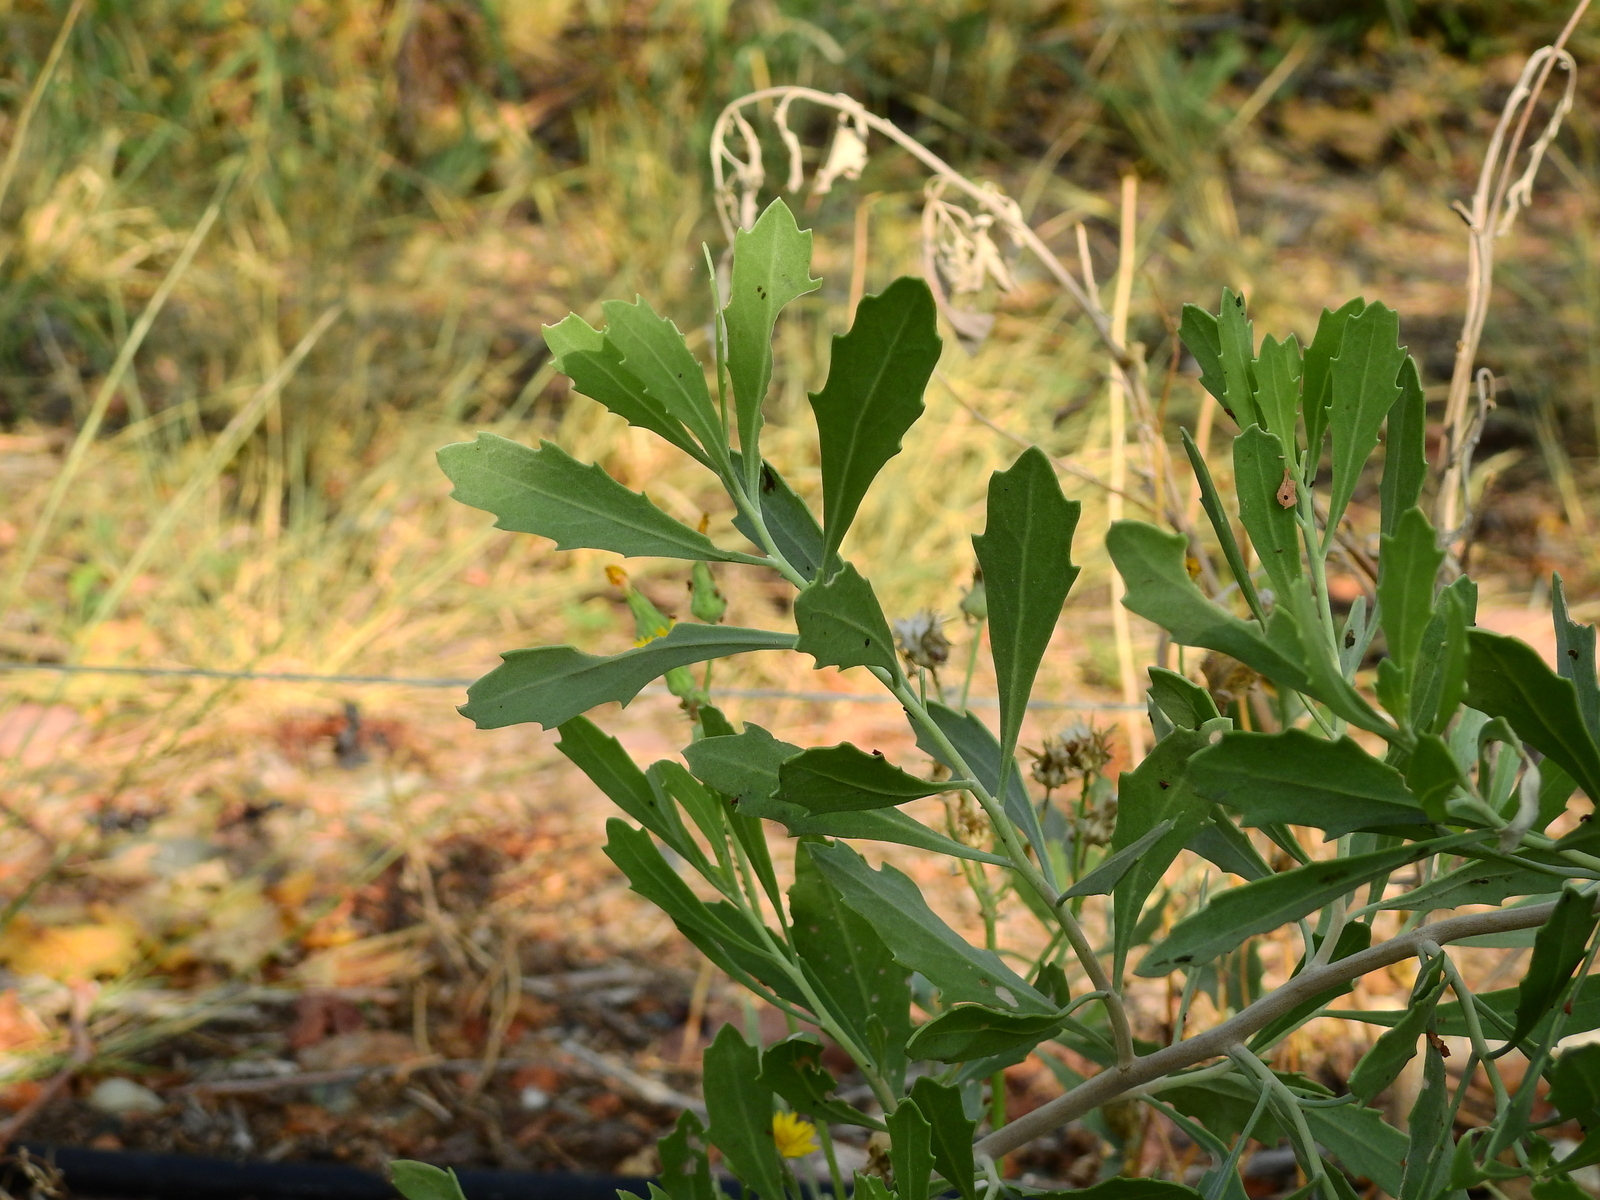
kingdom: Plantae
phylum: Tracheophyta
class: Magnoliopsida
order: Asterales
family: Asteraceae
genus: Tessaria
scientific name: Tessaria absinthioides
